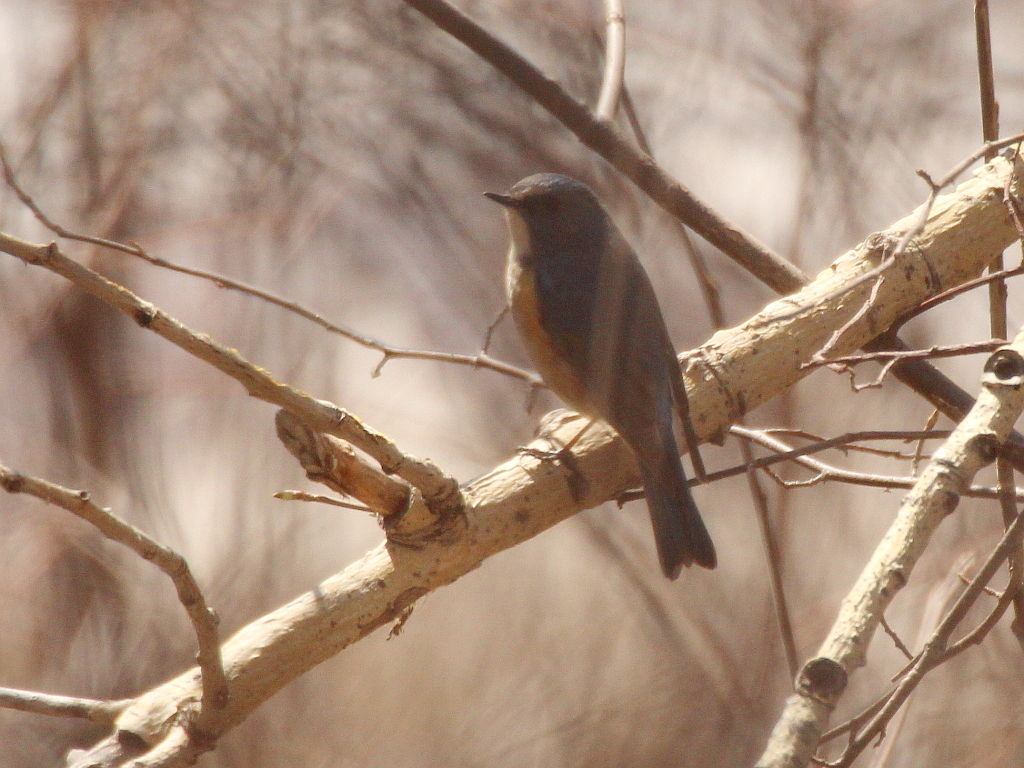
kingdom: Animalia
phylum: Chordata
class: Aves
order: Passeriformes
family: Muscicapidae
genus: Tarsiger
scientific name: Tarsiger cyanurus
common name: Red-flanked bluetail
